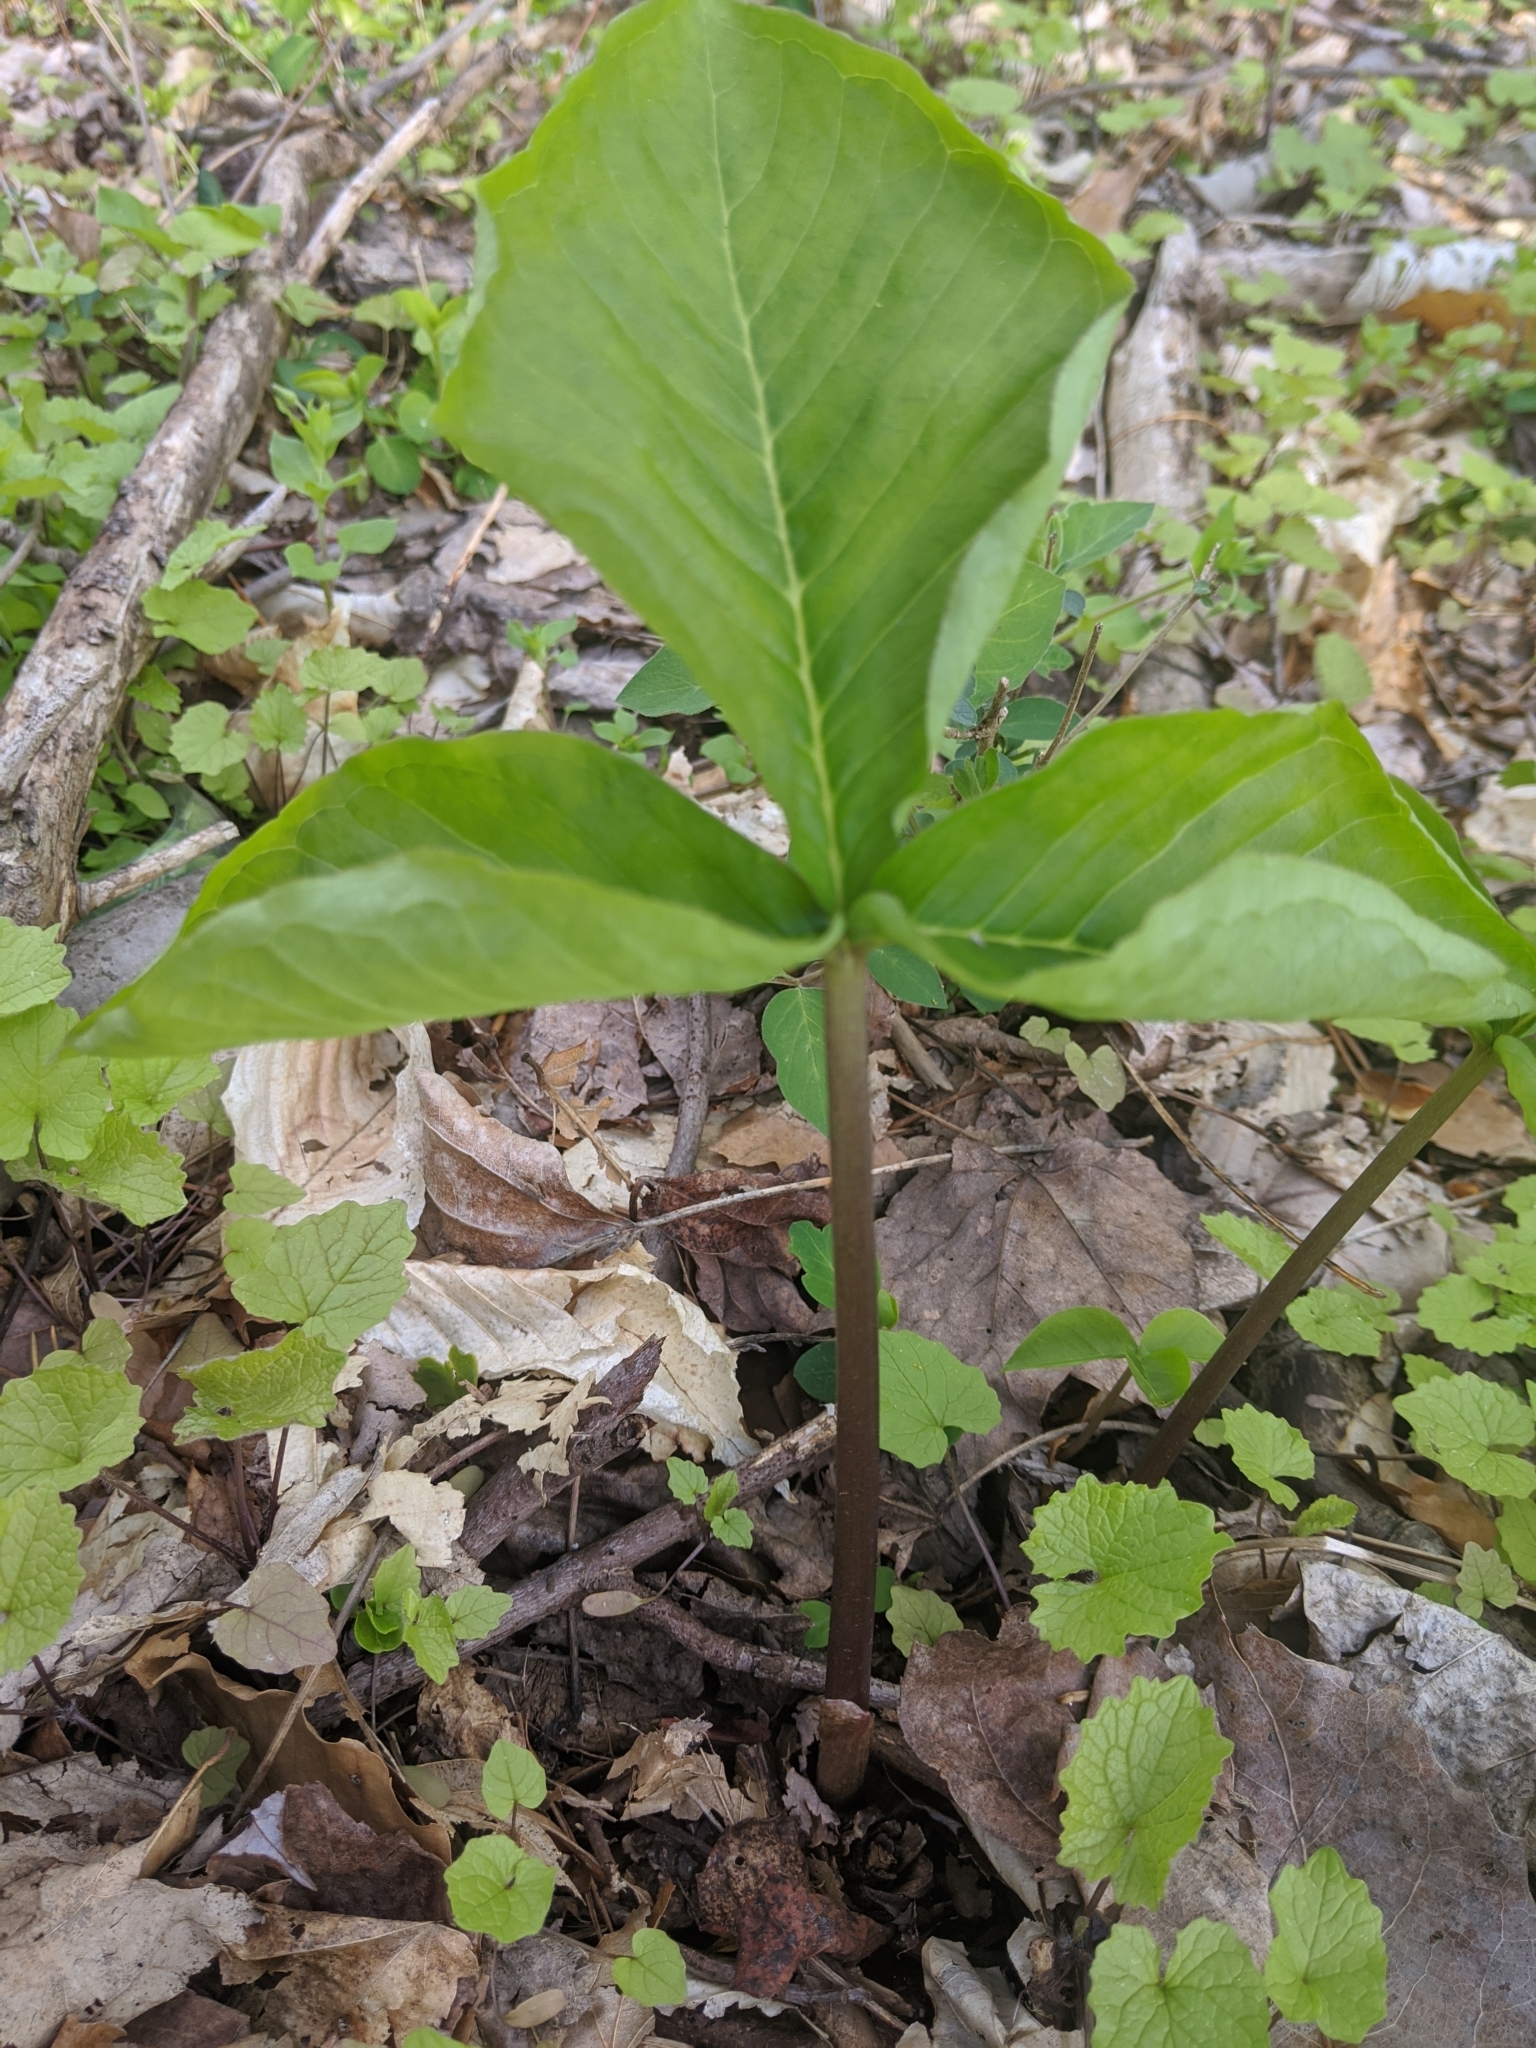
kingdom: Plantae
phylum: Tracheophyta
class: Liliopsida
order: Alismatales
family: Araceae
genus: Arisaema
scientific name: Arisaema triphyllum
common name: Jack-in-the-pulpit
